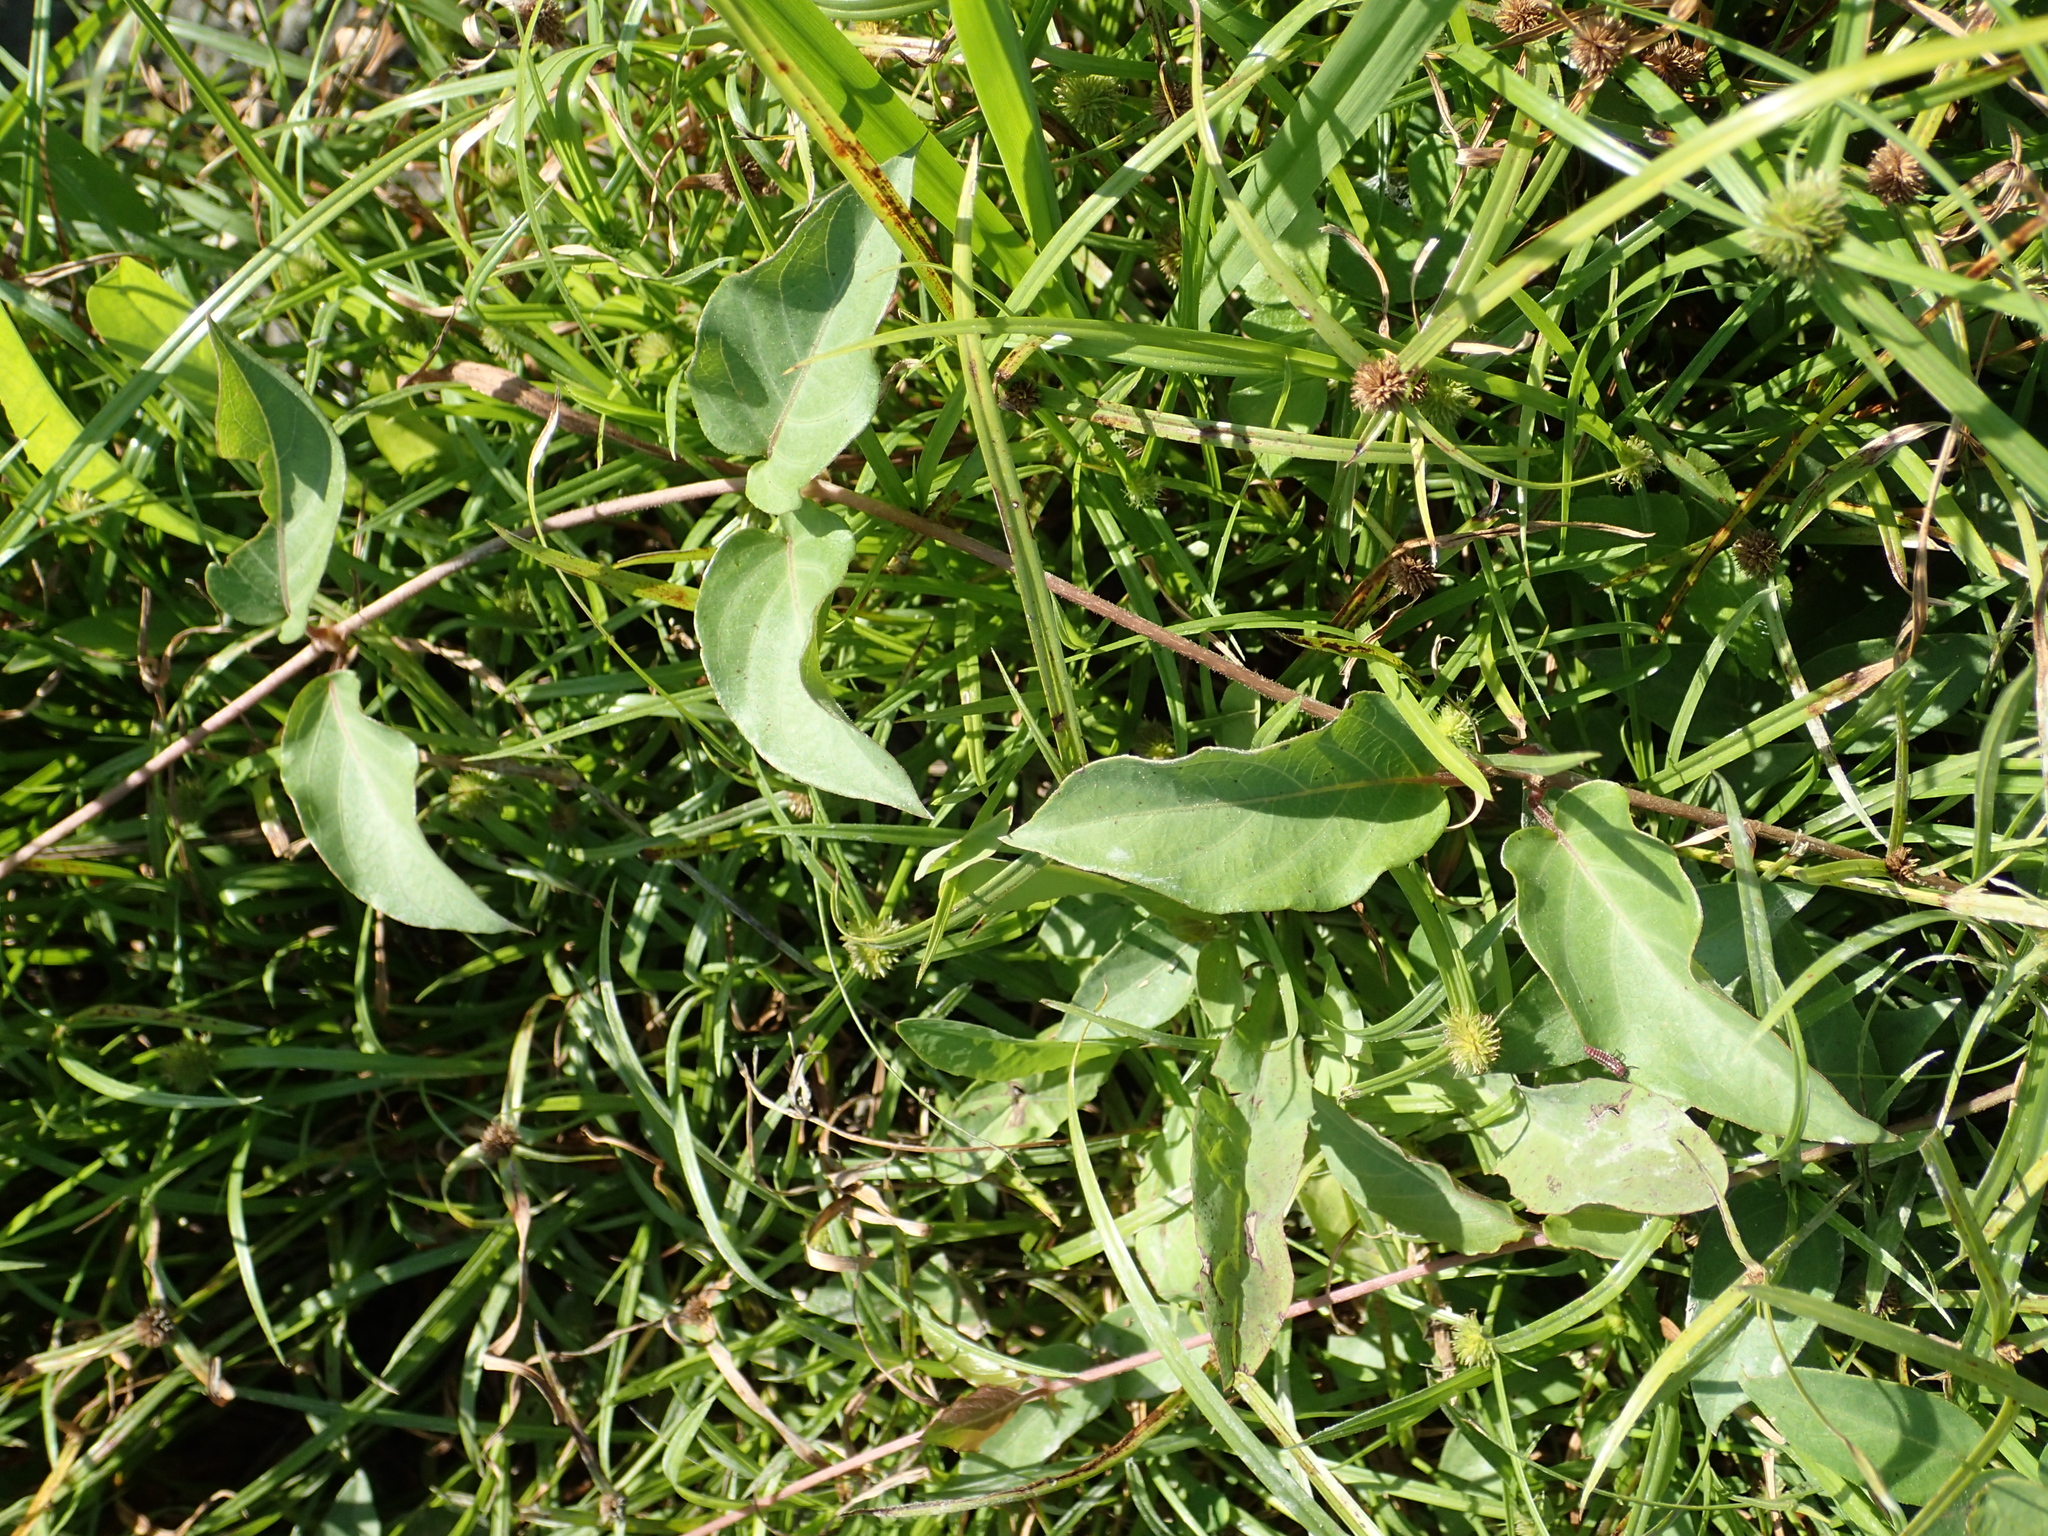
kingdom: Plantae
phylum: Tracheophyta
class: Magnoliopsida
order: Gentianales
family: Rubiaceae
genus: Paederia
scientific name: Paederia foetida
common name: Stinkvine
